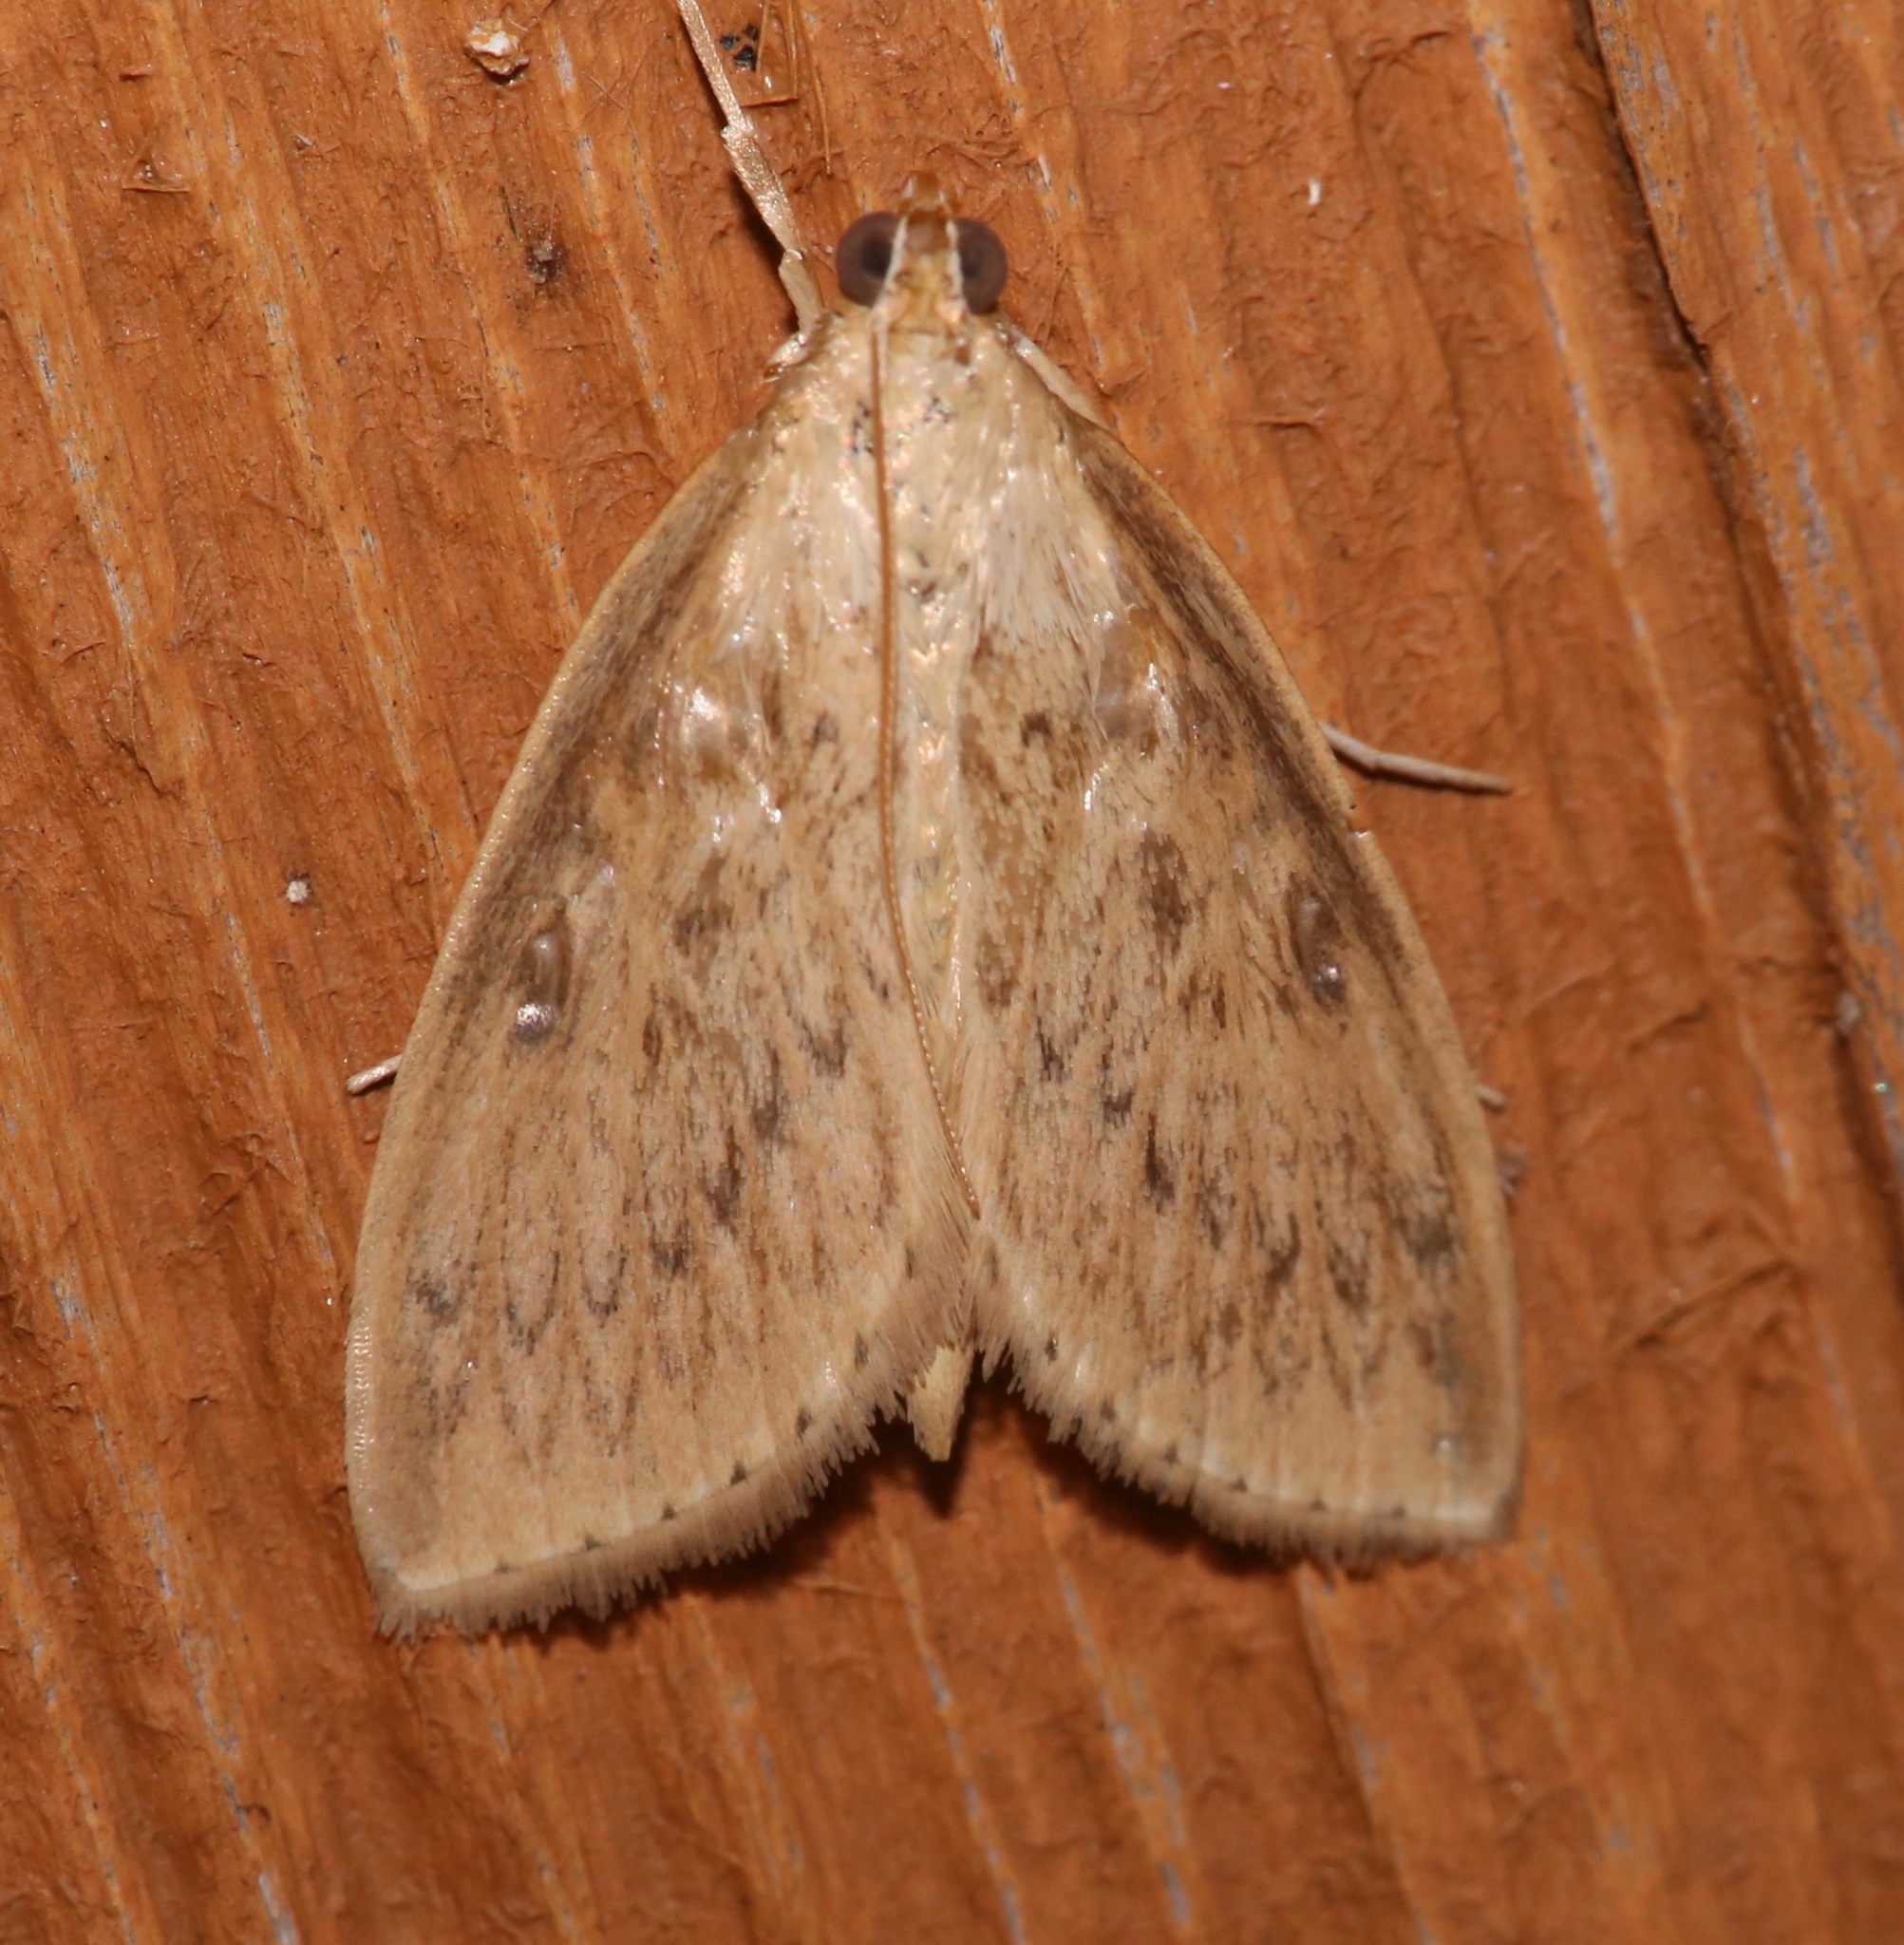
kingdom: Animalia
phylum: Arthropoda
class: Insecta
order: Lepidoptera
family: Crambidae
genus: Crocidophora
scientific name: Crocidophora pustuliferalis
